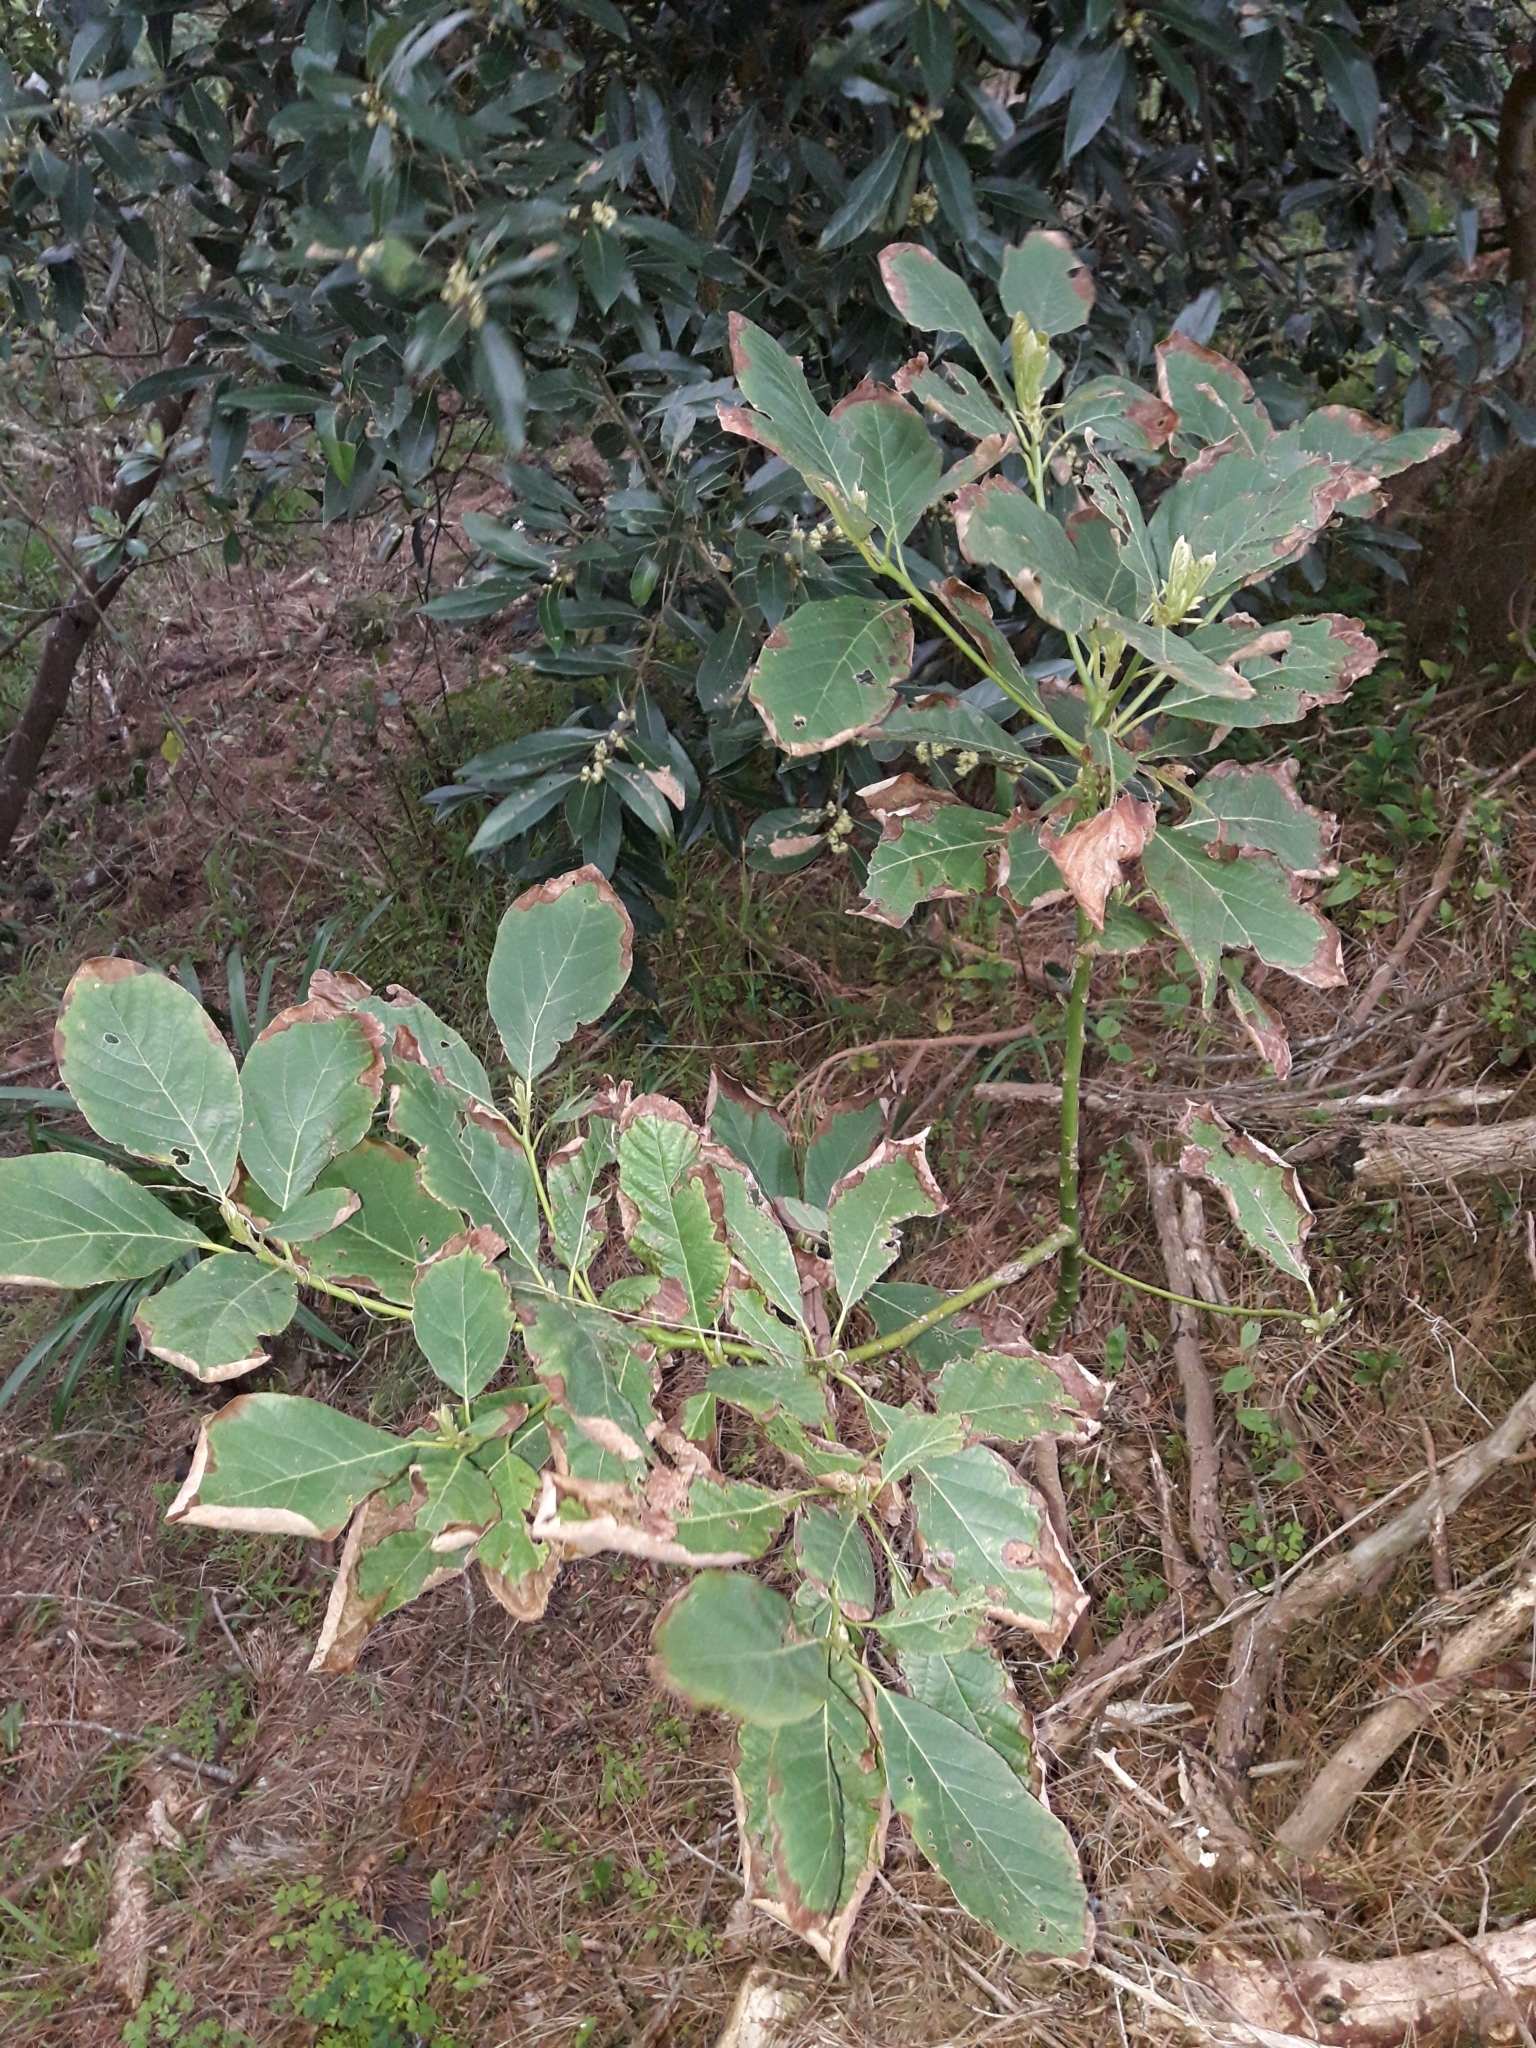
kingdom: Plantae
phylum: Tracheophyta
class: Magnoliopsida
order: Laurales
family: Lauraceae
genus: Persea
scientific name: Persea americana
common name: Avocado
